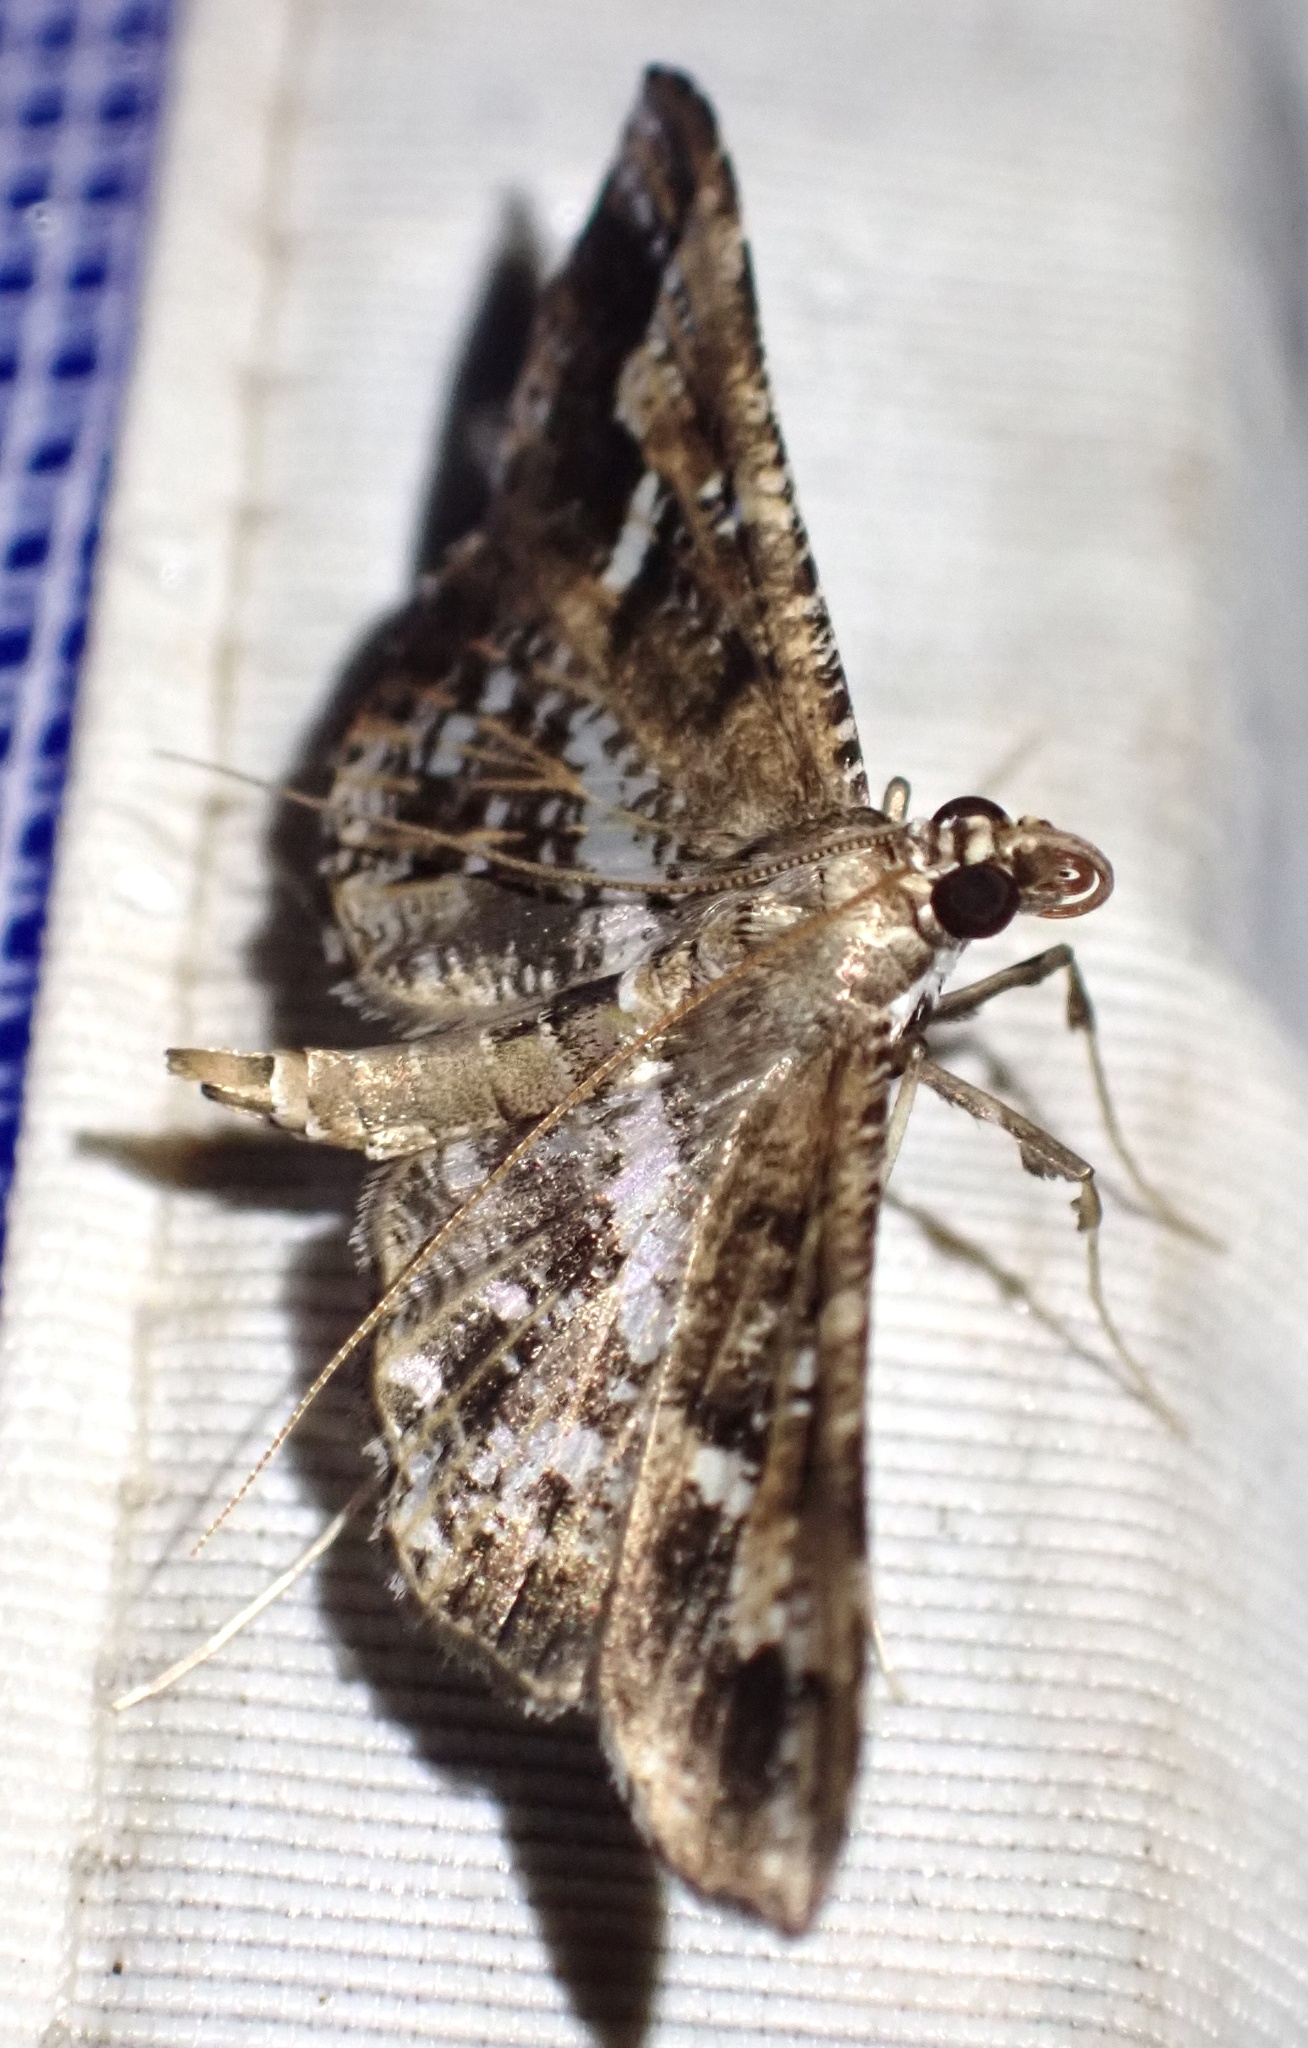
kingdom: Animalia
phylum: Arthropoda
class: Insecta
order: Lepidoptera
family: Crambidae
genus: Merodictya
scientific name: Merodictya marmorata
